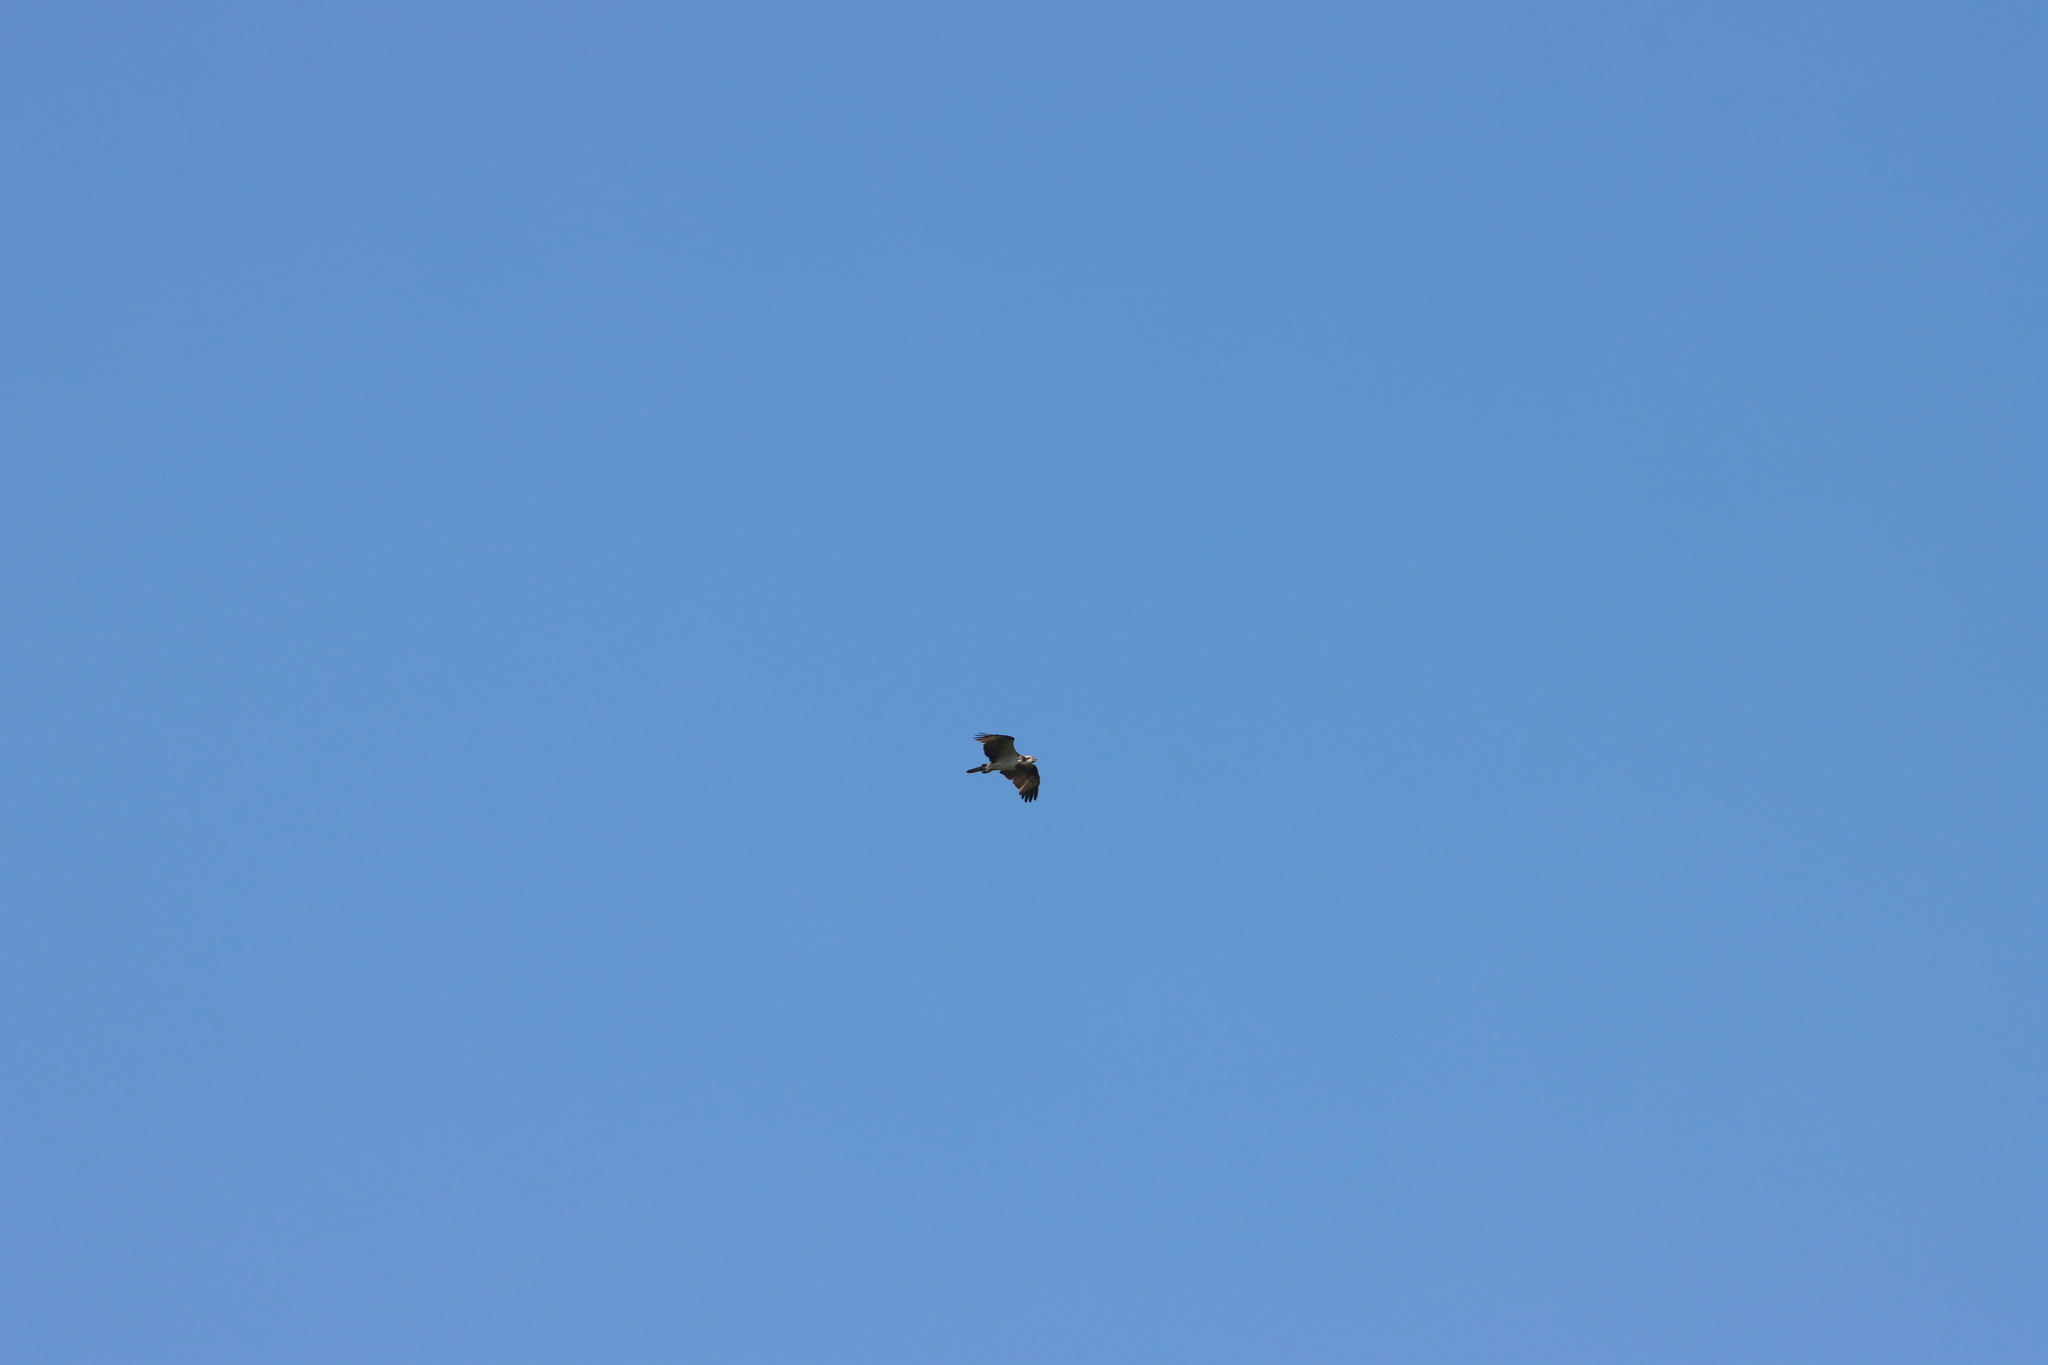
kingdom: Animalia
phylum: Chordata
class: Aves
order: Accipitriformes
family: Pandionidae
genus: Pandion
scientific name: Pandion haliaetus
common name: Osprey
